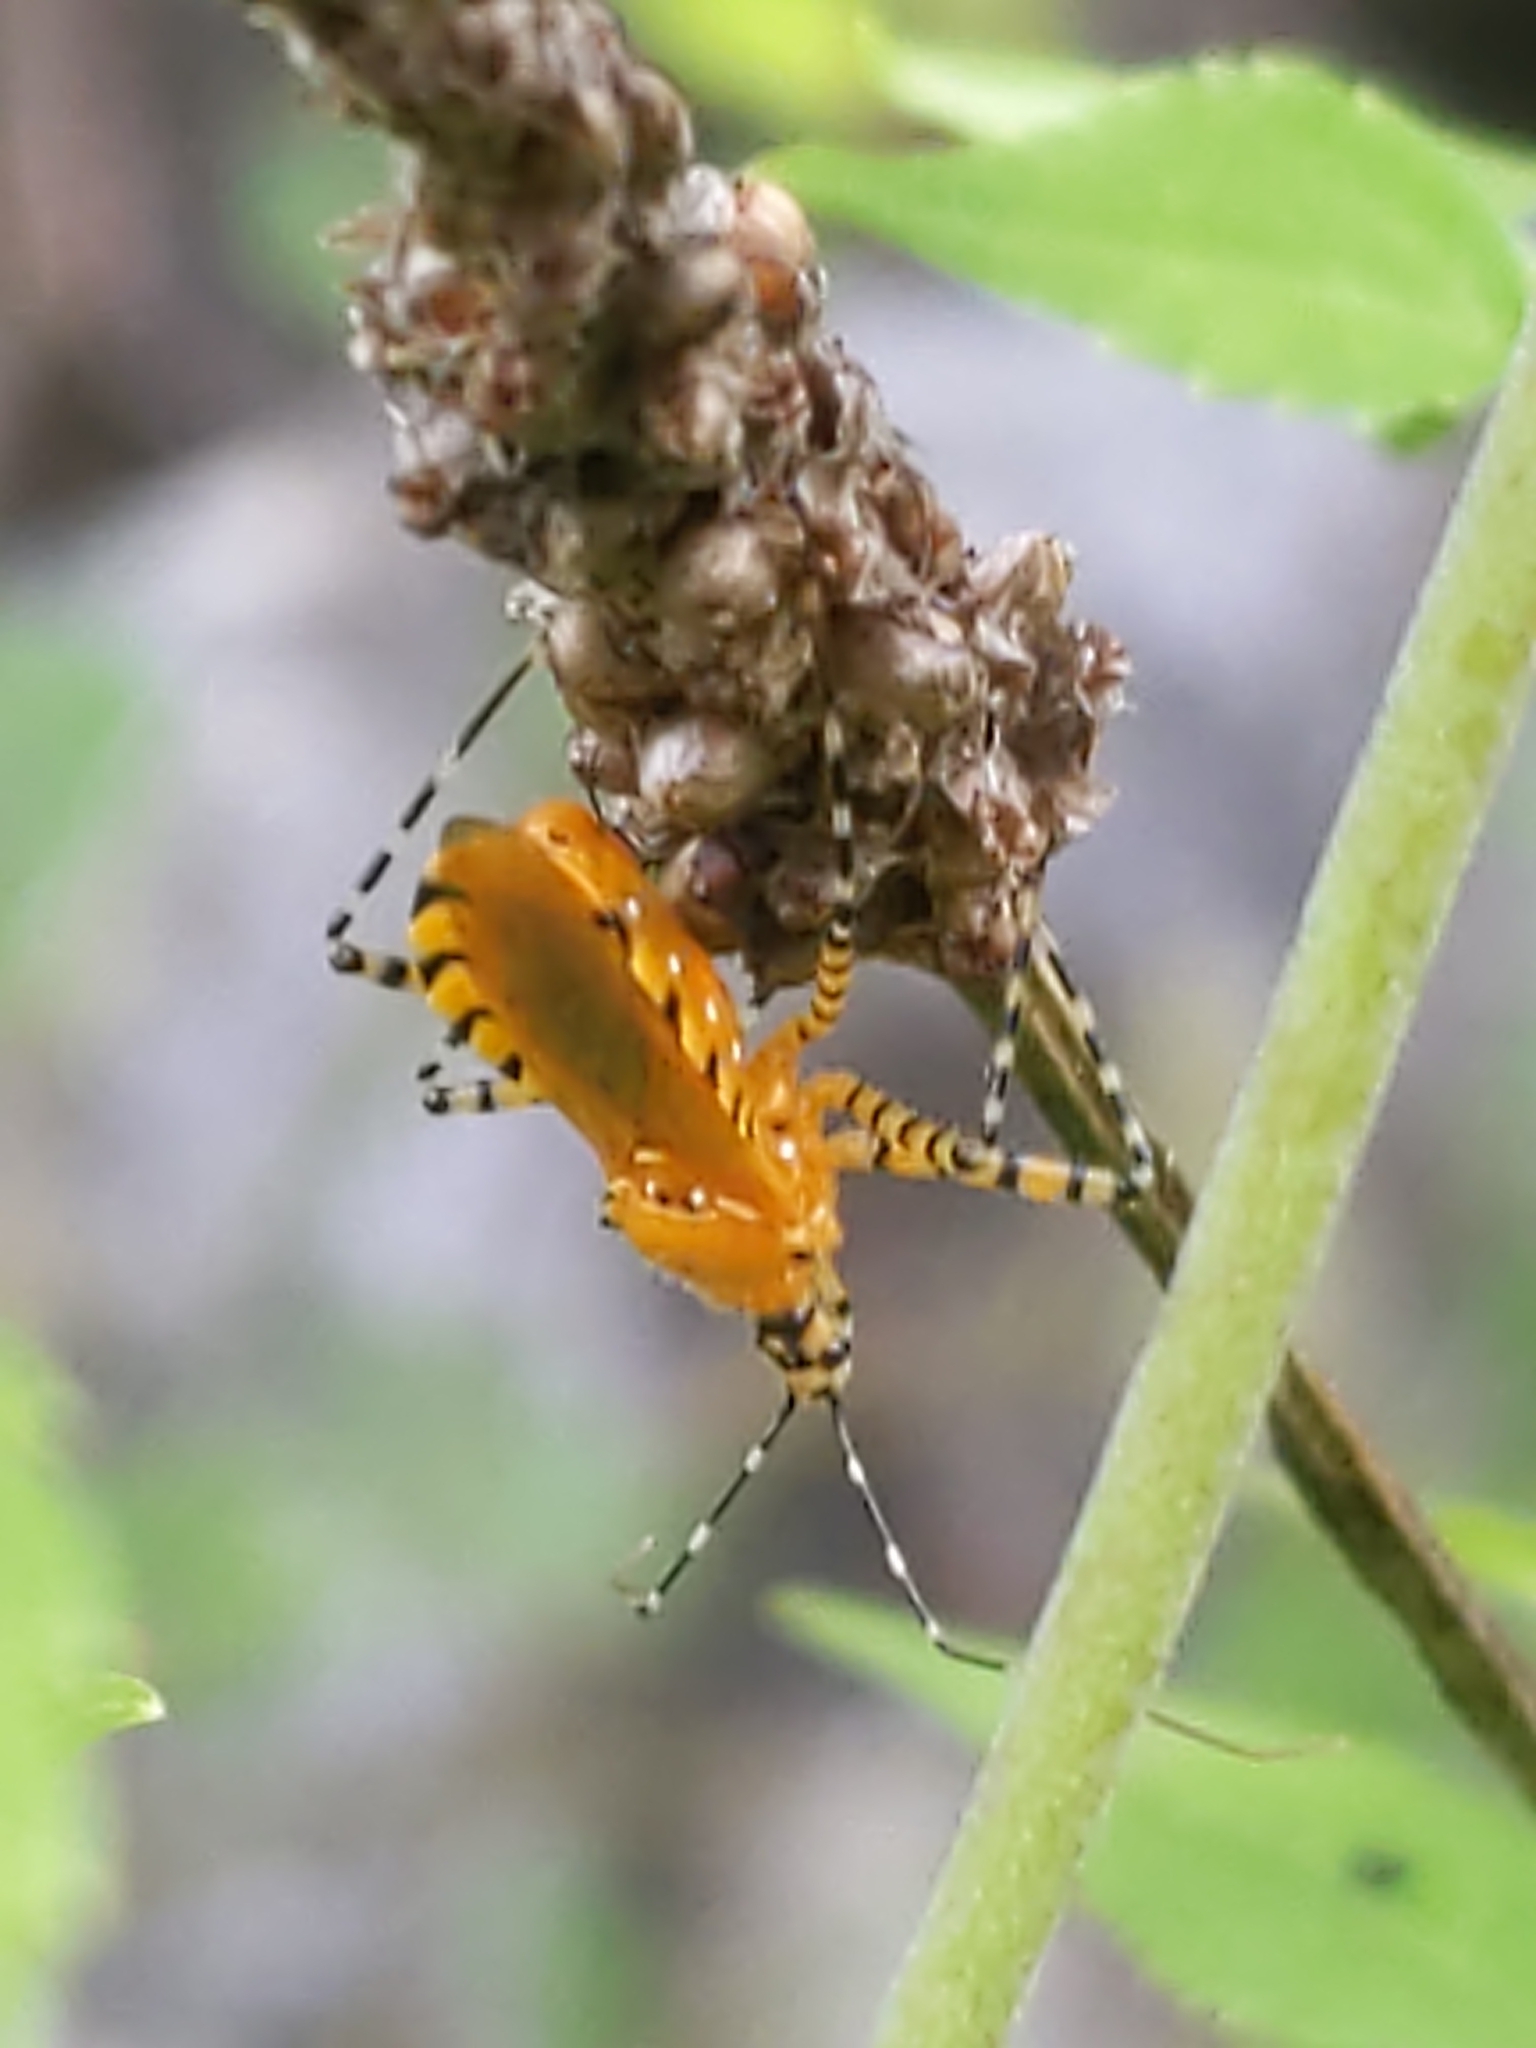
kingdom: Animalia
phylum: Arthropoda
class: Insecta
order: Hemiptera
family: Reduviidae
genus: Pselliopus
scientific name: Pselliopus barberi
